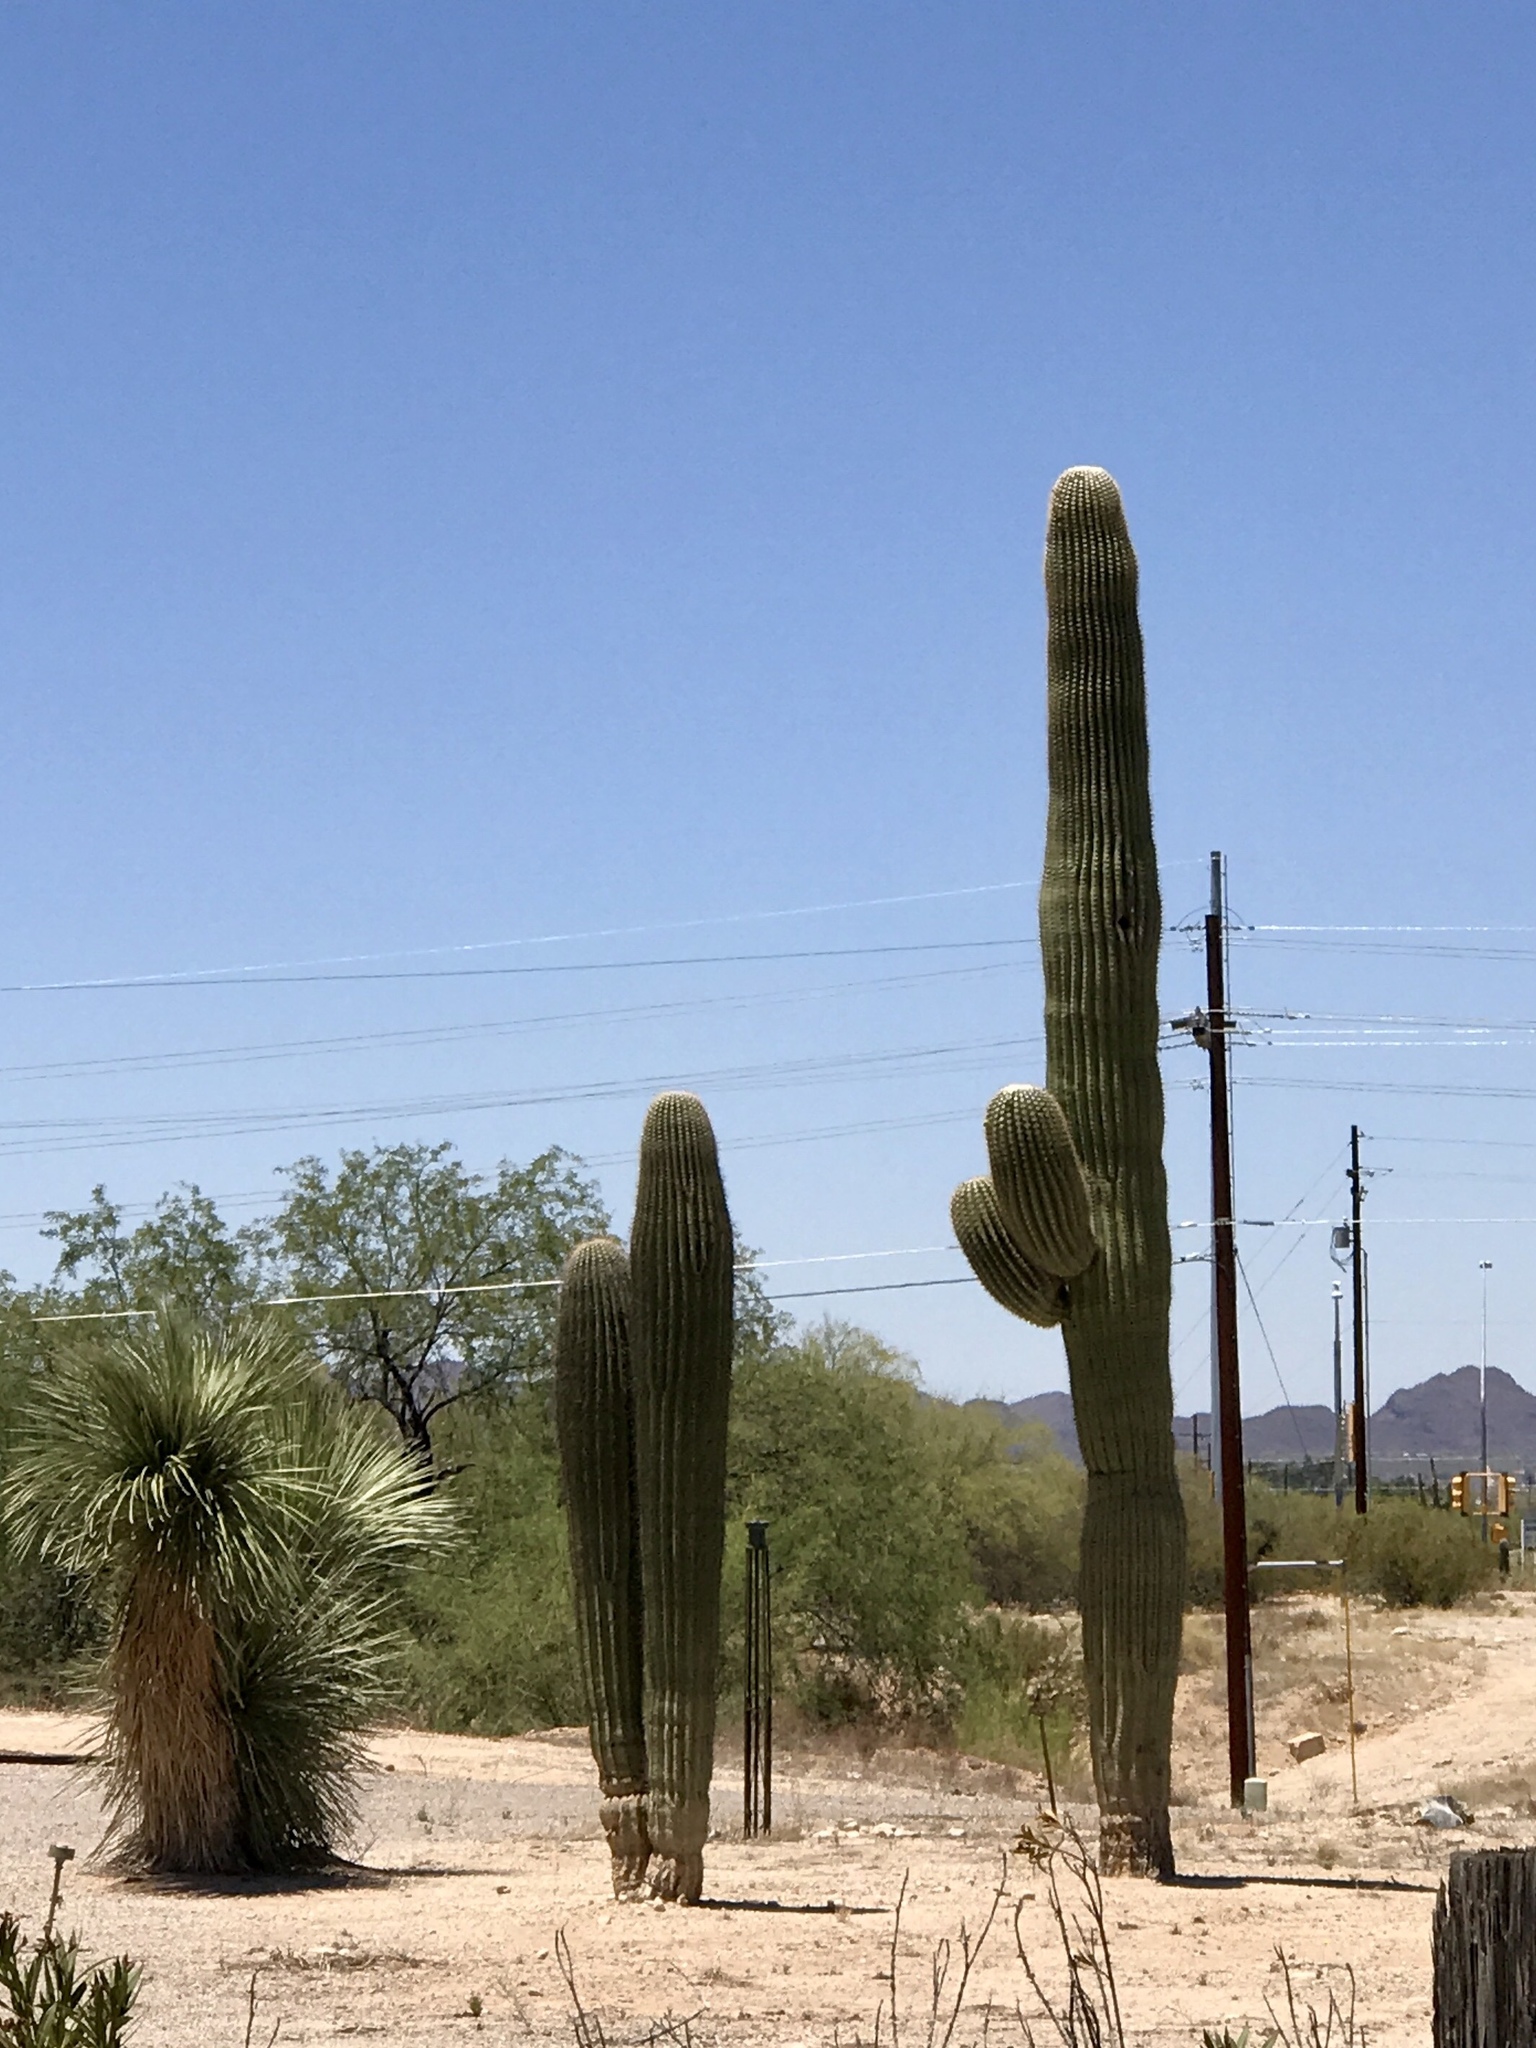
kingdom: Plantae
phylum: Tracheophyta
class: Magnoliopsida
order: Caryophyllales
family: Cactaceae
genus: Carnegiea
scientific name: Carnegiea gigantea
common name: Saguaro
